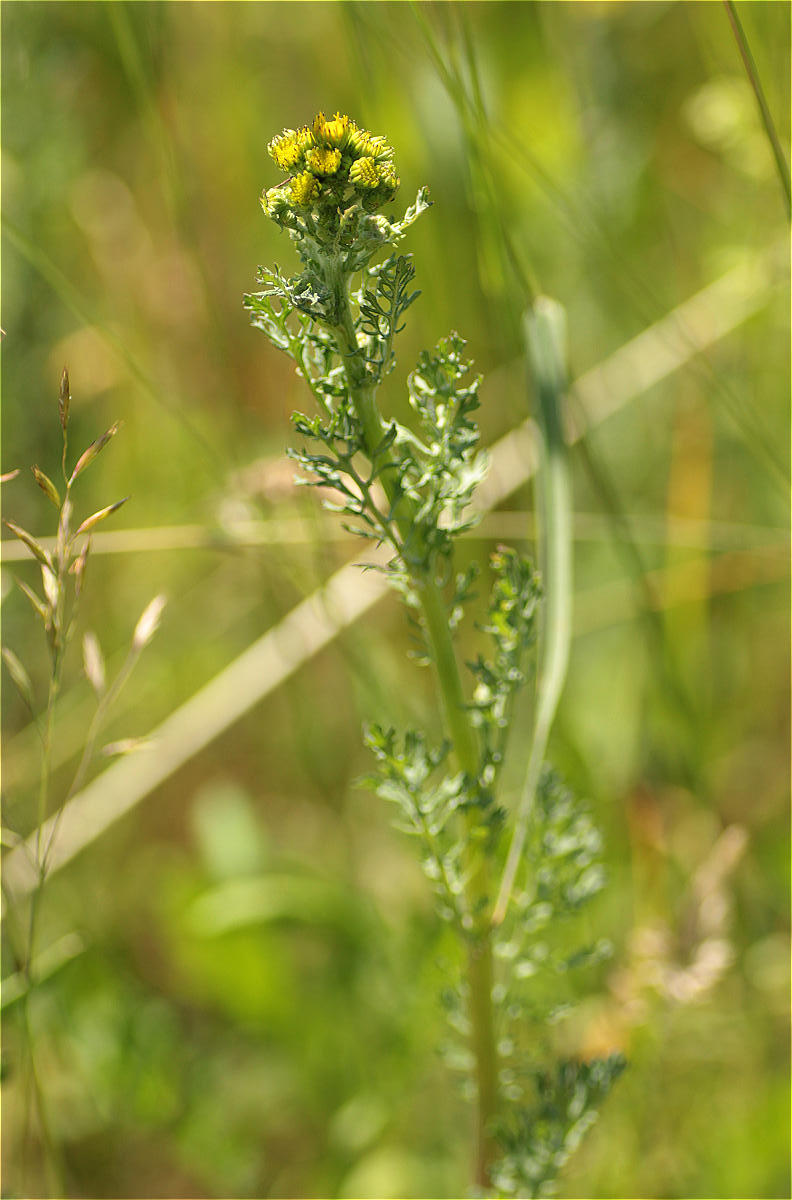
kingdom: Plantae
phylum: Tracheophyta
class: Magnoliopsida
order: Asterales
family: Asteraceae
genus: Jacobaea
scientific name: Jacobaea vulgaris
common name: Stinking willie
